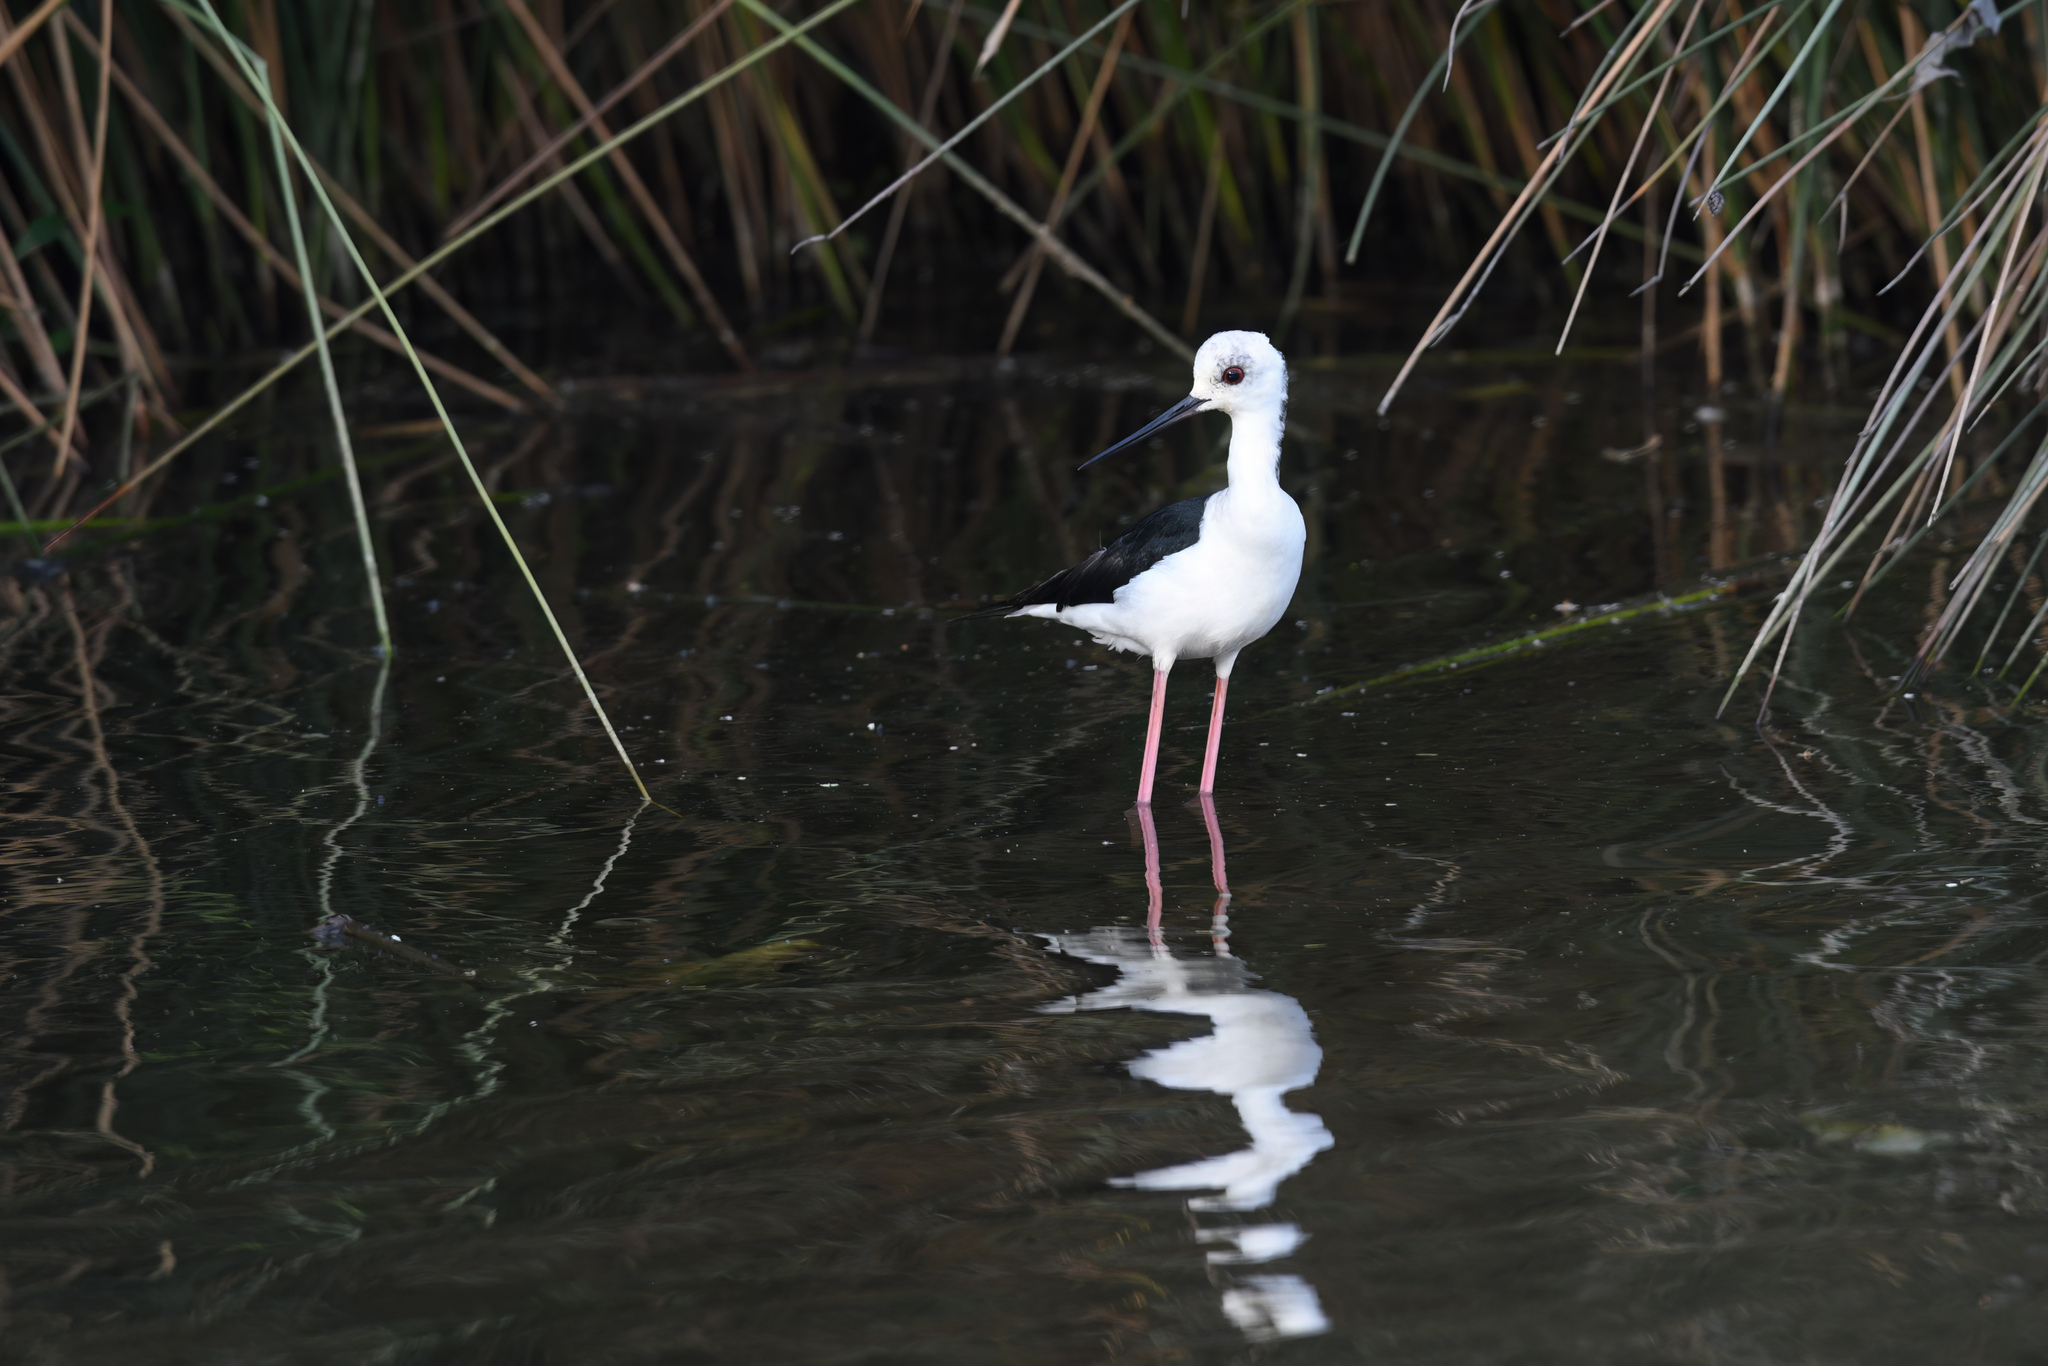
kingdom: Animalia
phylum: Chordata
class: Aves
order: Charadriiformes
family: Recurvirostridae
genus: Himantopus
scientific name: Himantopus leucocephalus
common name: White-headed stilt
